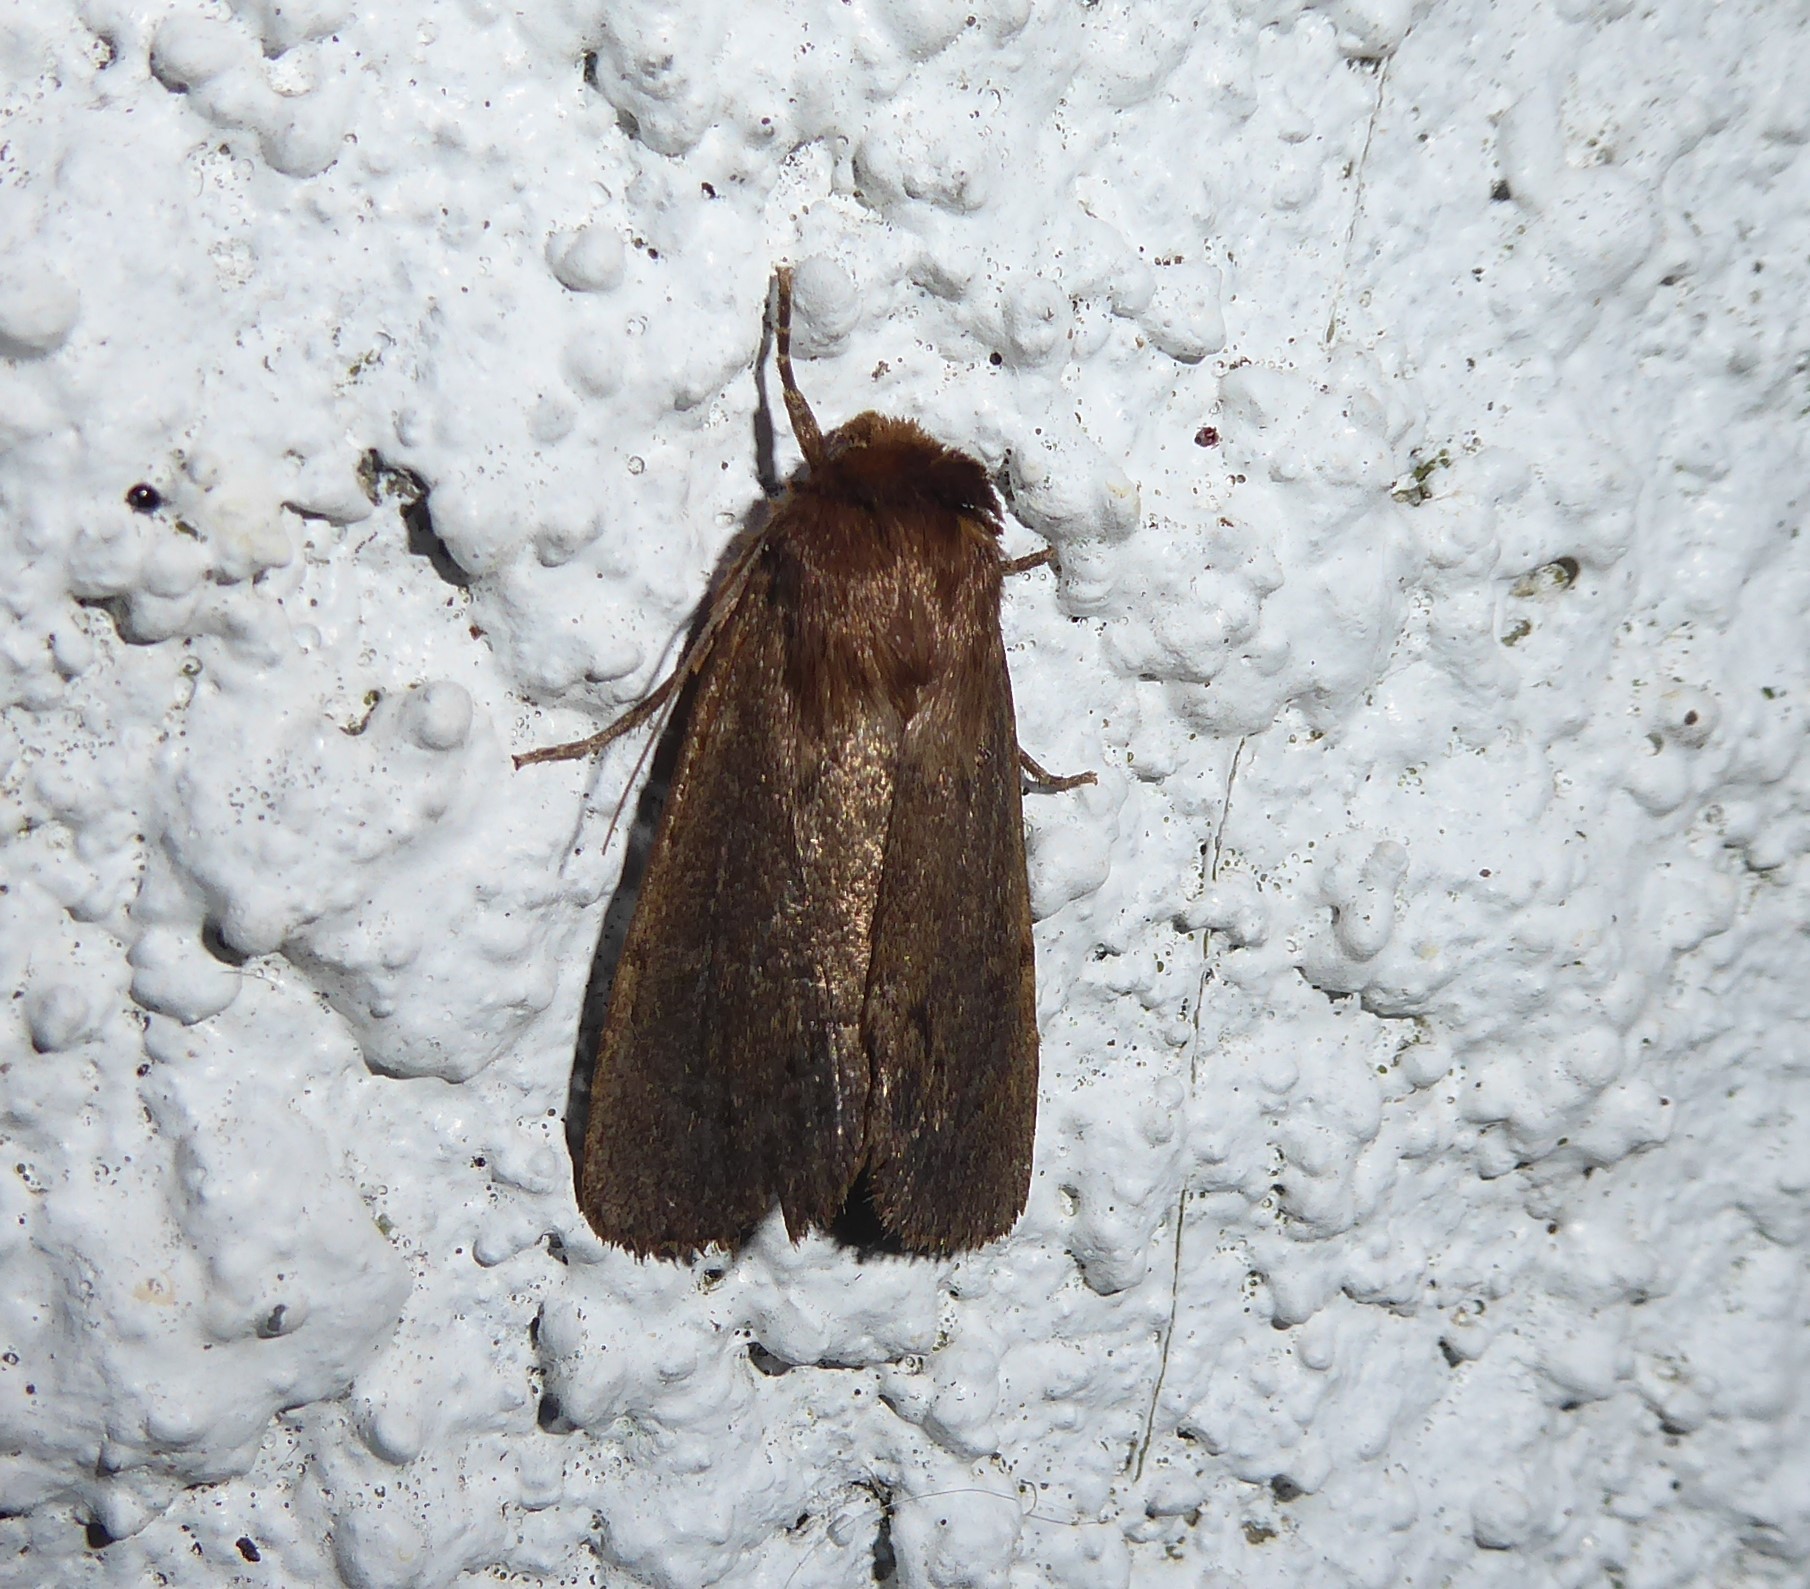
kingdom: Animalia
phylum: Arthropoda
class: Insecta
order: Lepidoptera
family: Noctuidae
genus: Bityla
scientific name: Bityla defigurata
